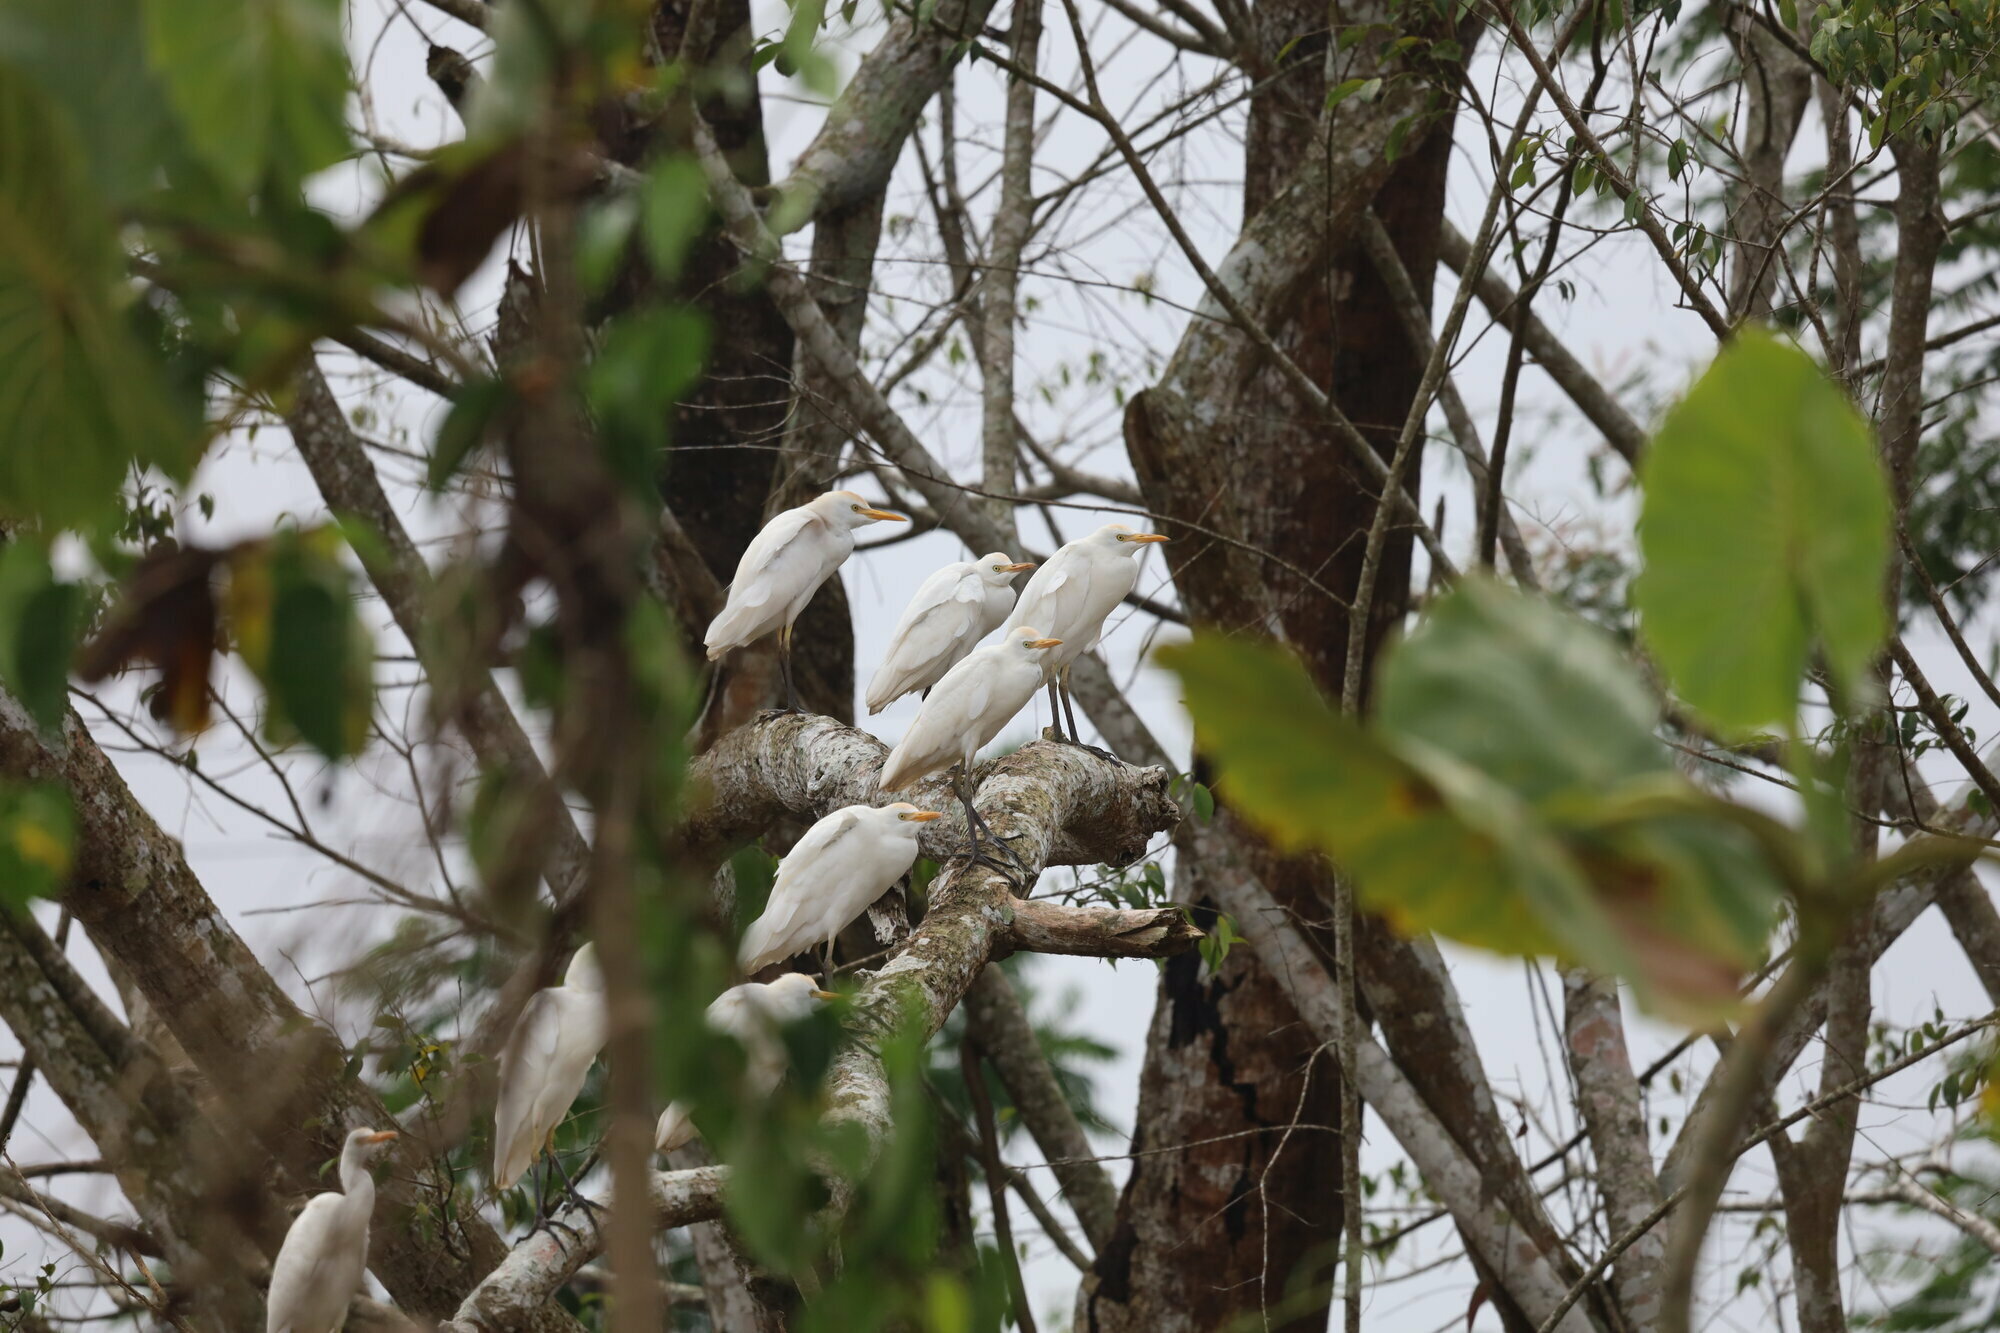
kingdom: Animalia
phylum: Chordata
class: Aves
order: Pelecaniformes
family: Ardeidae
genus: Bubulcus
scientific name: Bubulcus ibis
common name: Cattle egret
